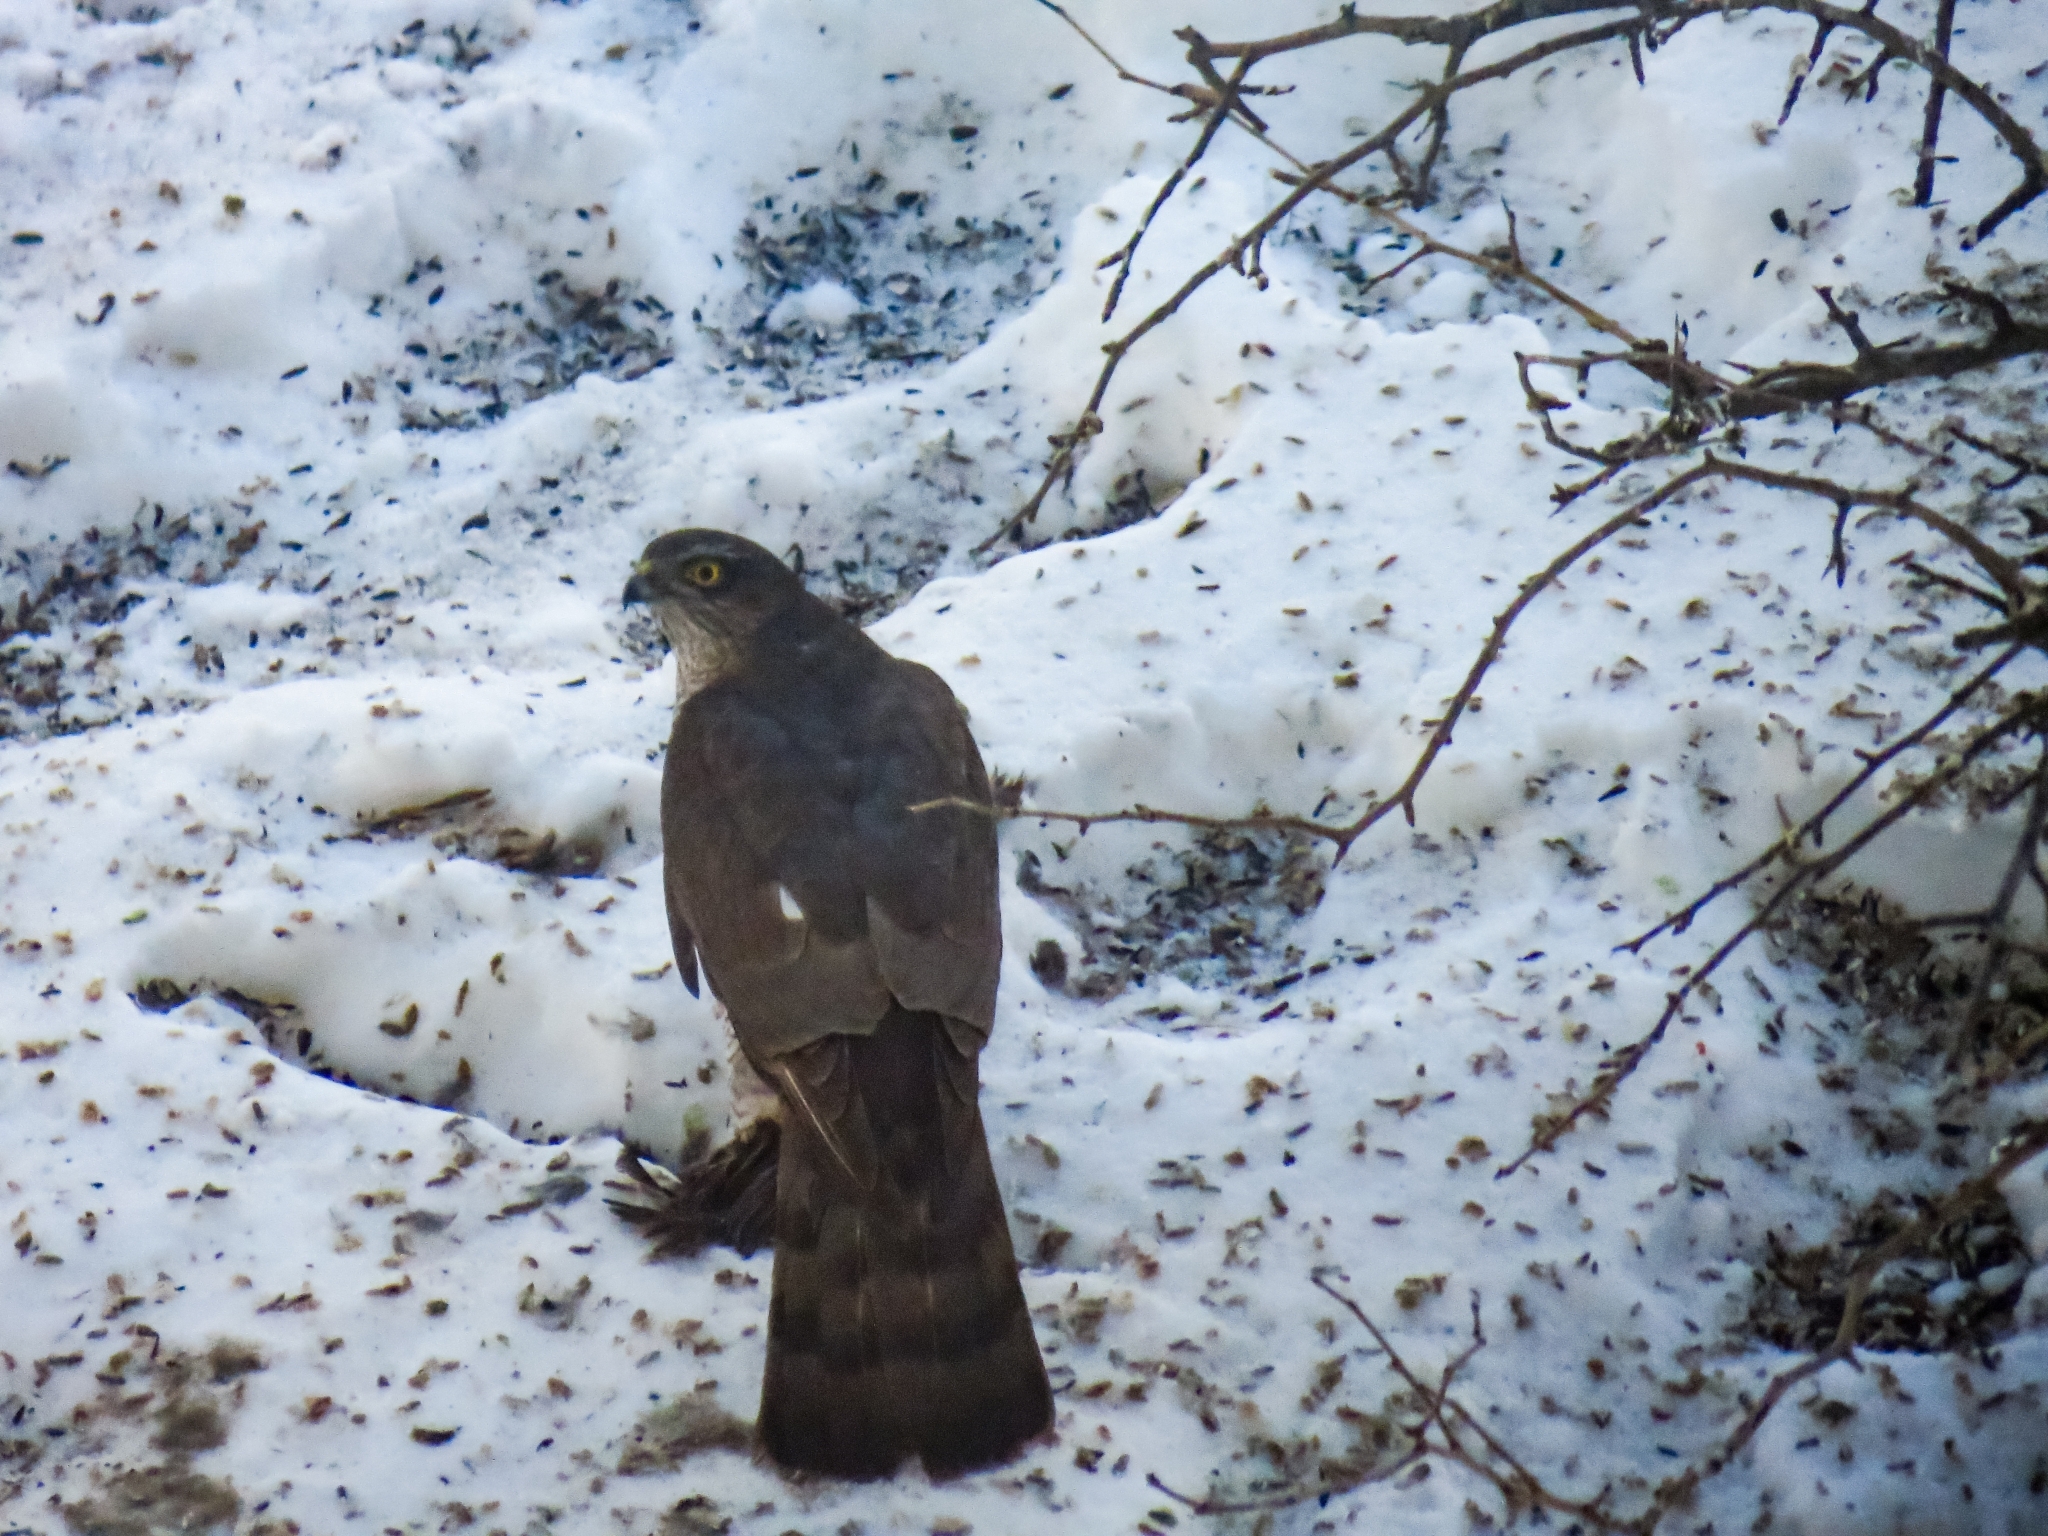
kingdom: Animalia
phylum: Chordata
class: Aves
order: Accipitriformes
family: Accipitridae
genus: Accipiter
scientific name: Accipiter nisus
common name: Eurasian sparrowhawk
